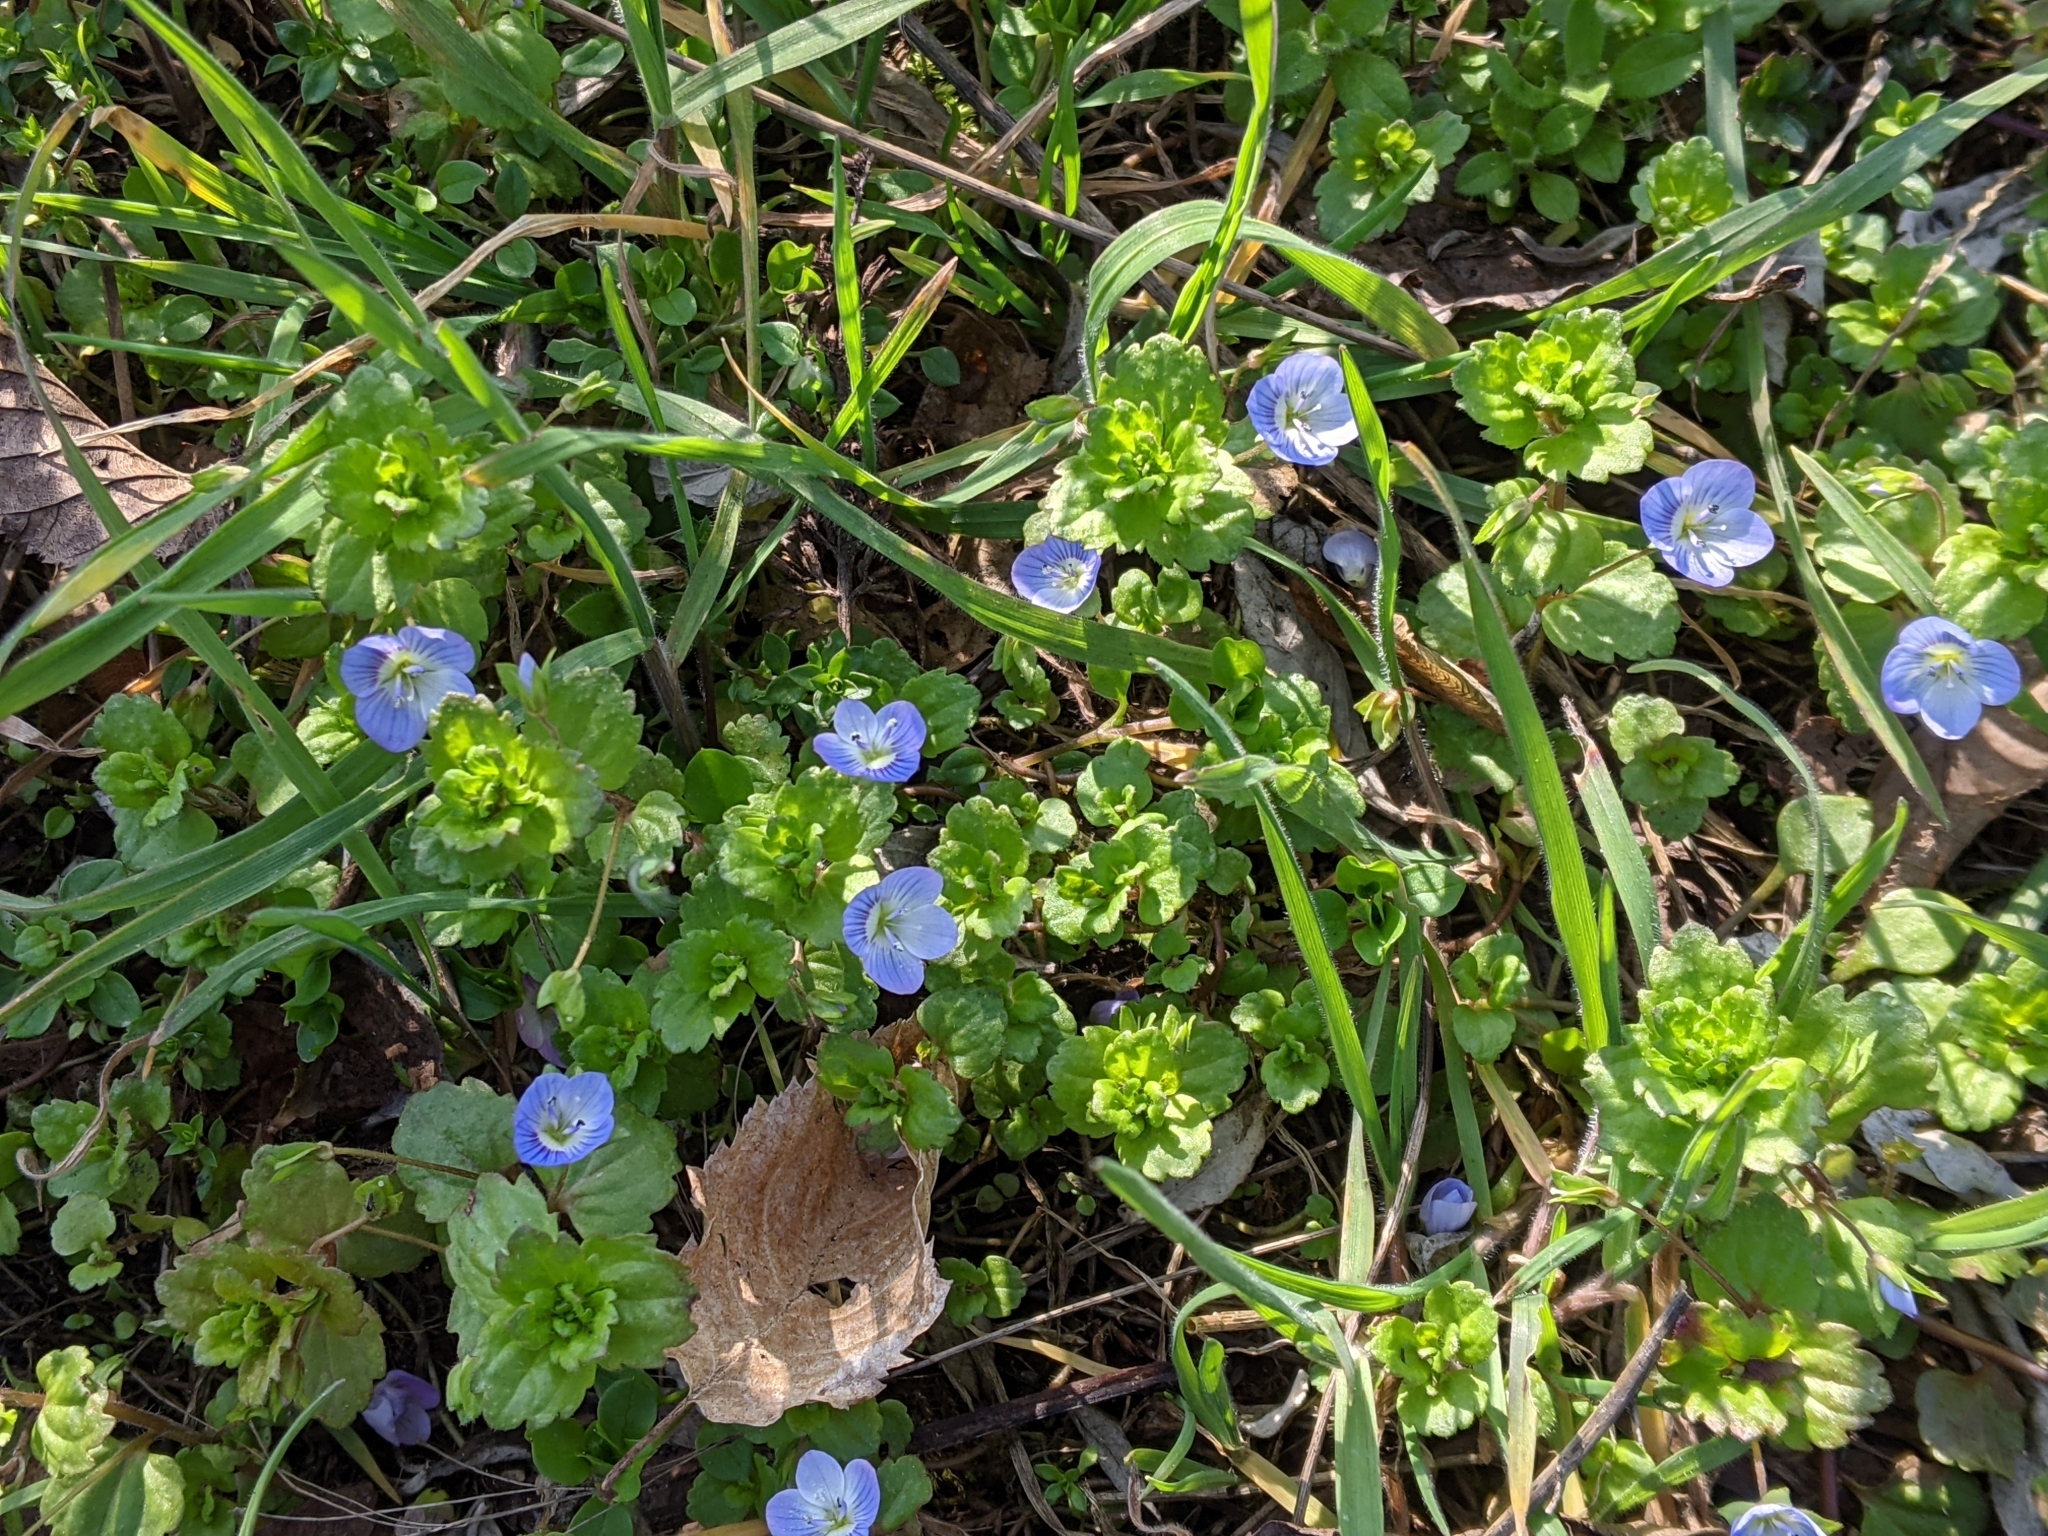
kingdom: Plantae
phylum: Tracheophyta
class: Magnoliopsida
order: Lamiales
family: Plantaginaceae
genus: Veronica
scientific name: Veronica persica
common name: Common field-speedwell
